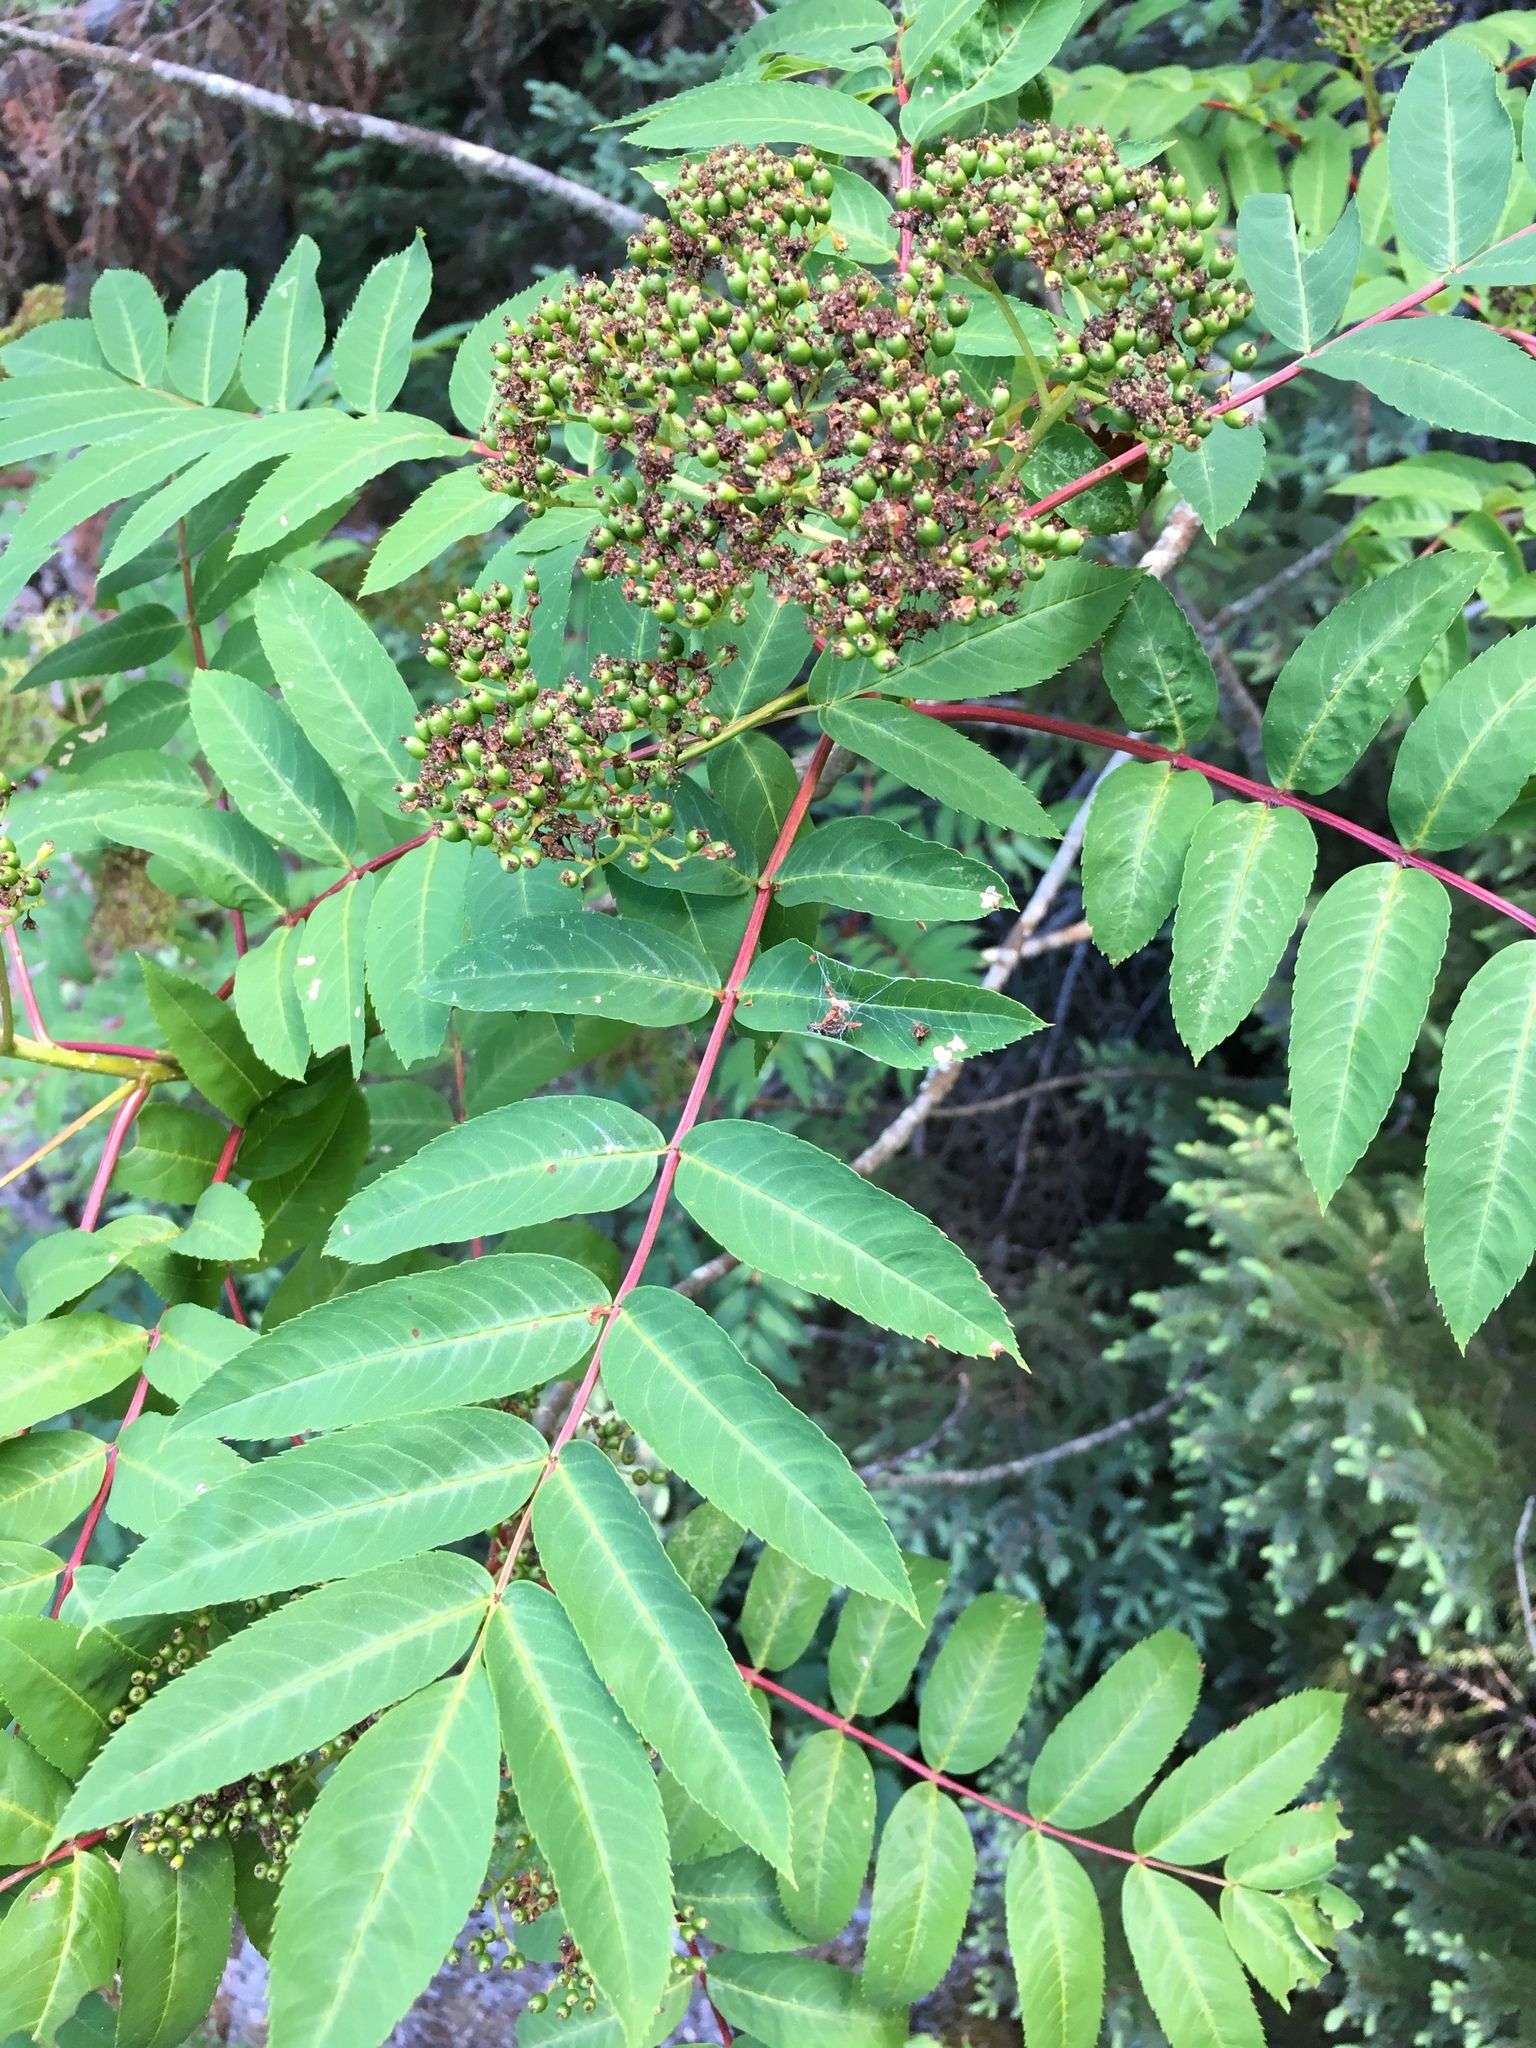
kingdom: Plantae
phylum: Tracheophyta
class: Magnoliopsida
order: Rosales
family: Rosaceae
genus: Sorbus
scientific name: Sorbus americana
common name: American mountain-ash
